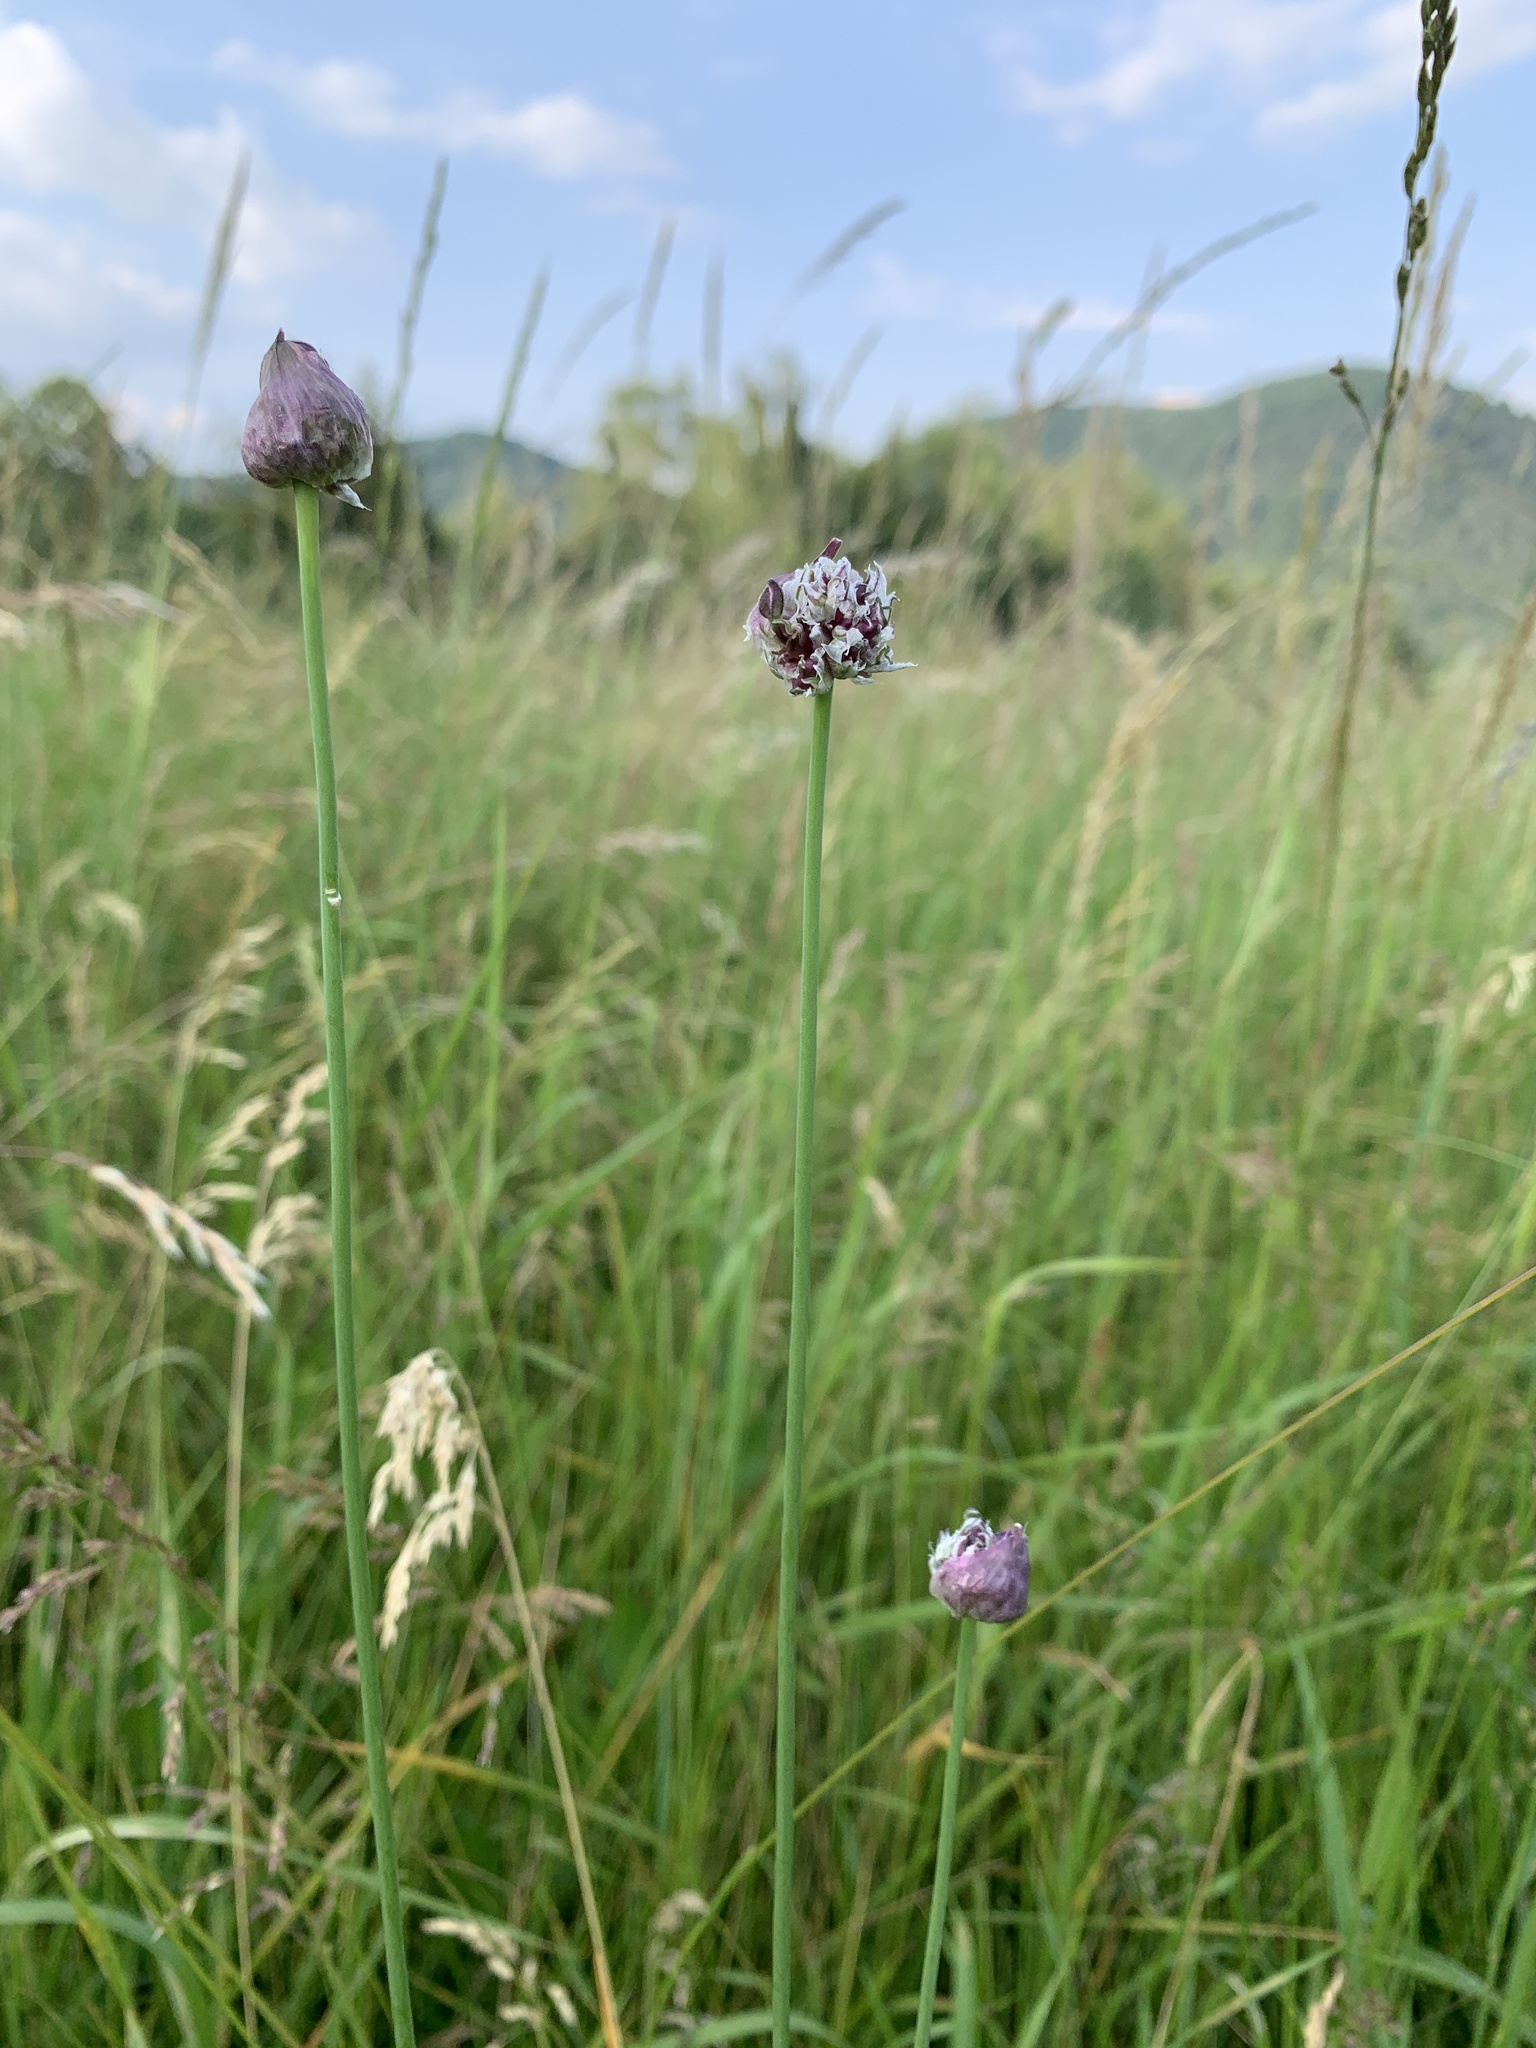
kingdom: Plantae
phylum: Tracheophyta
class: Liliopsida
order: Asparagales
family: Amaryllidaceae
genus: Allium
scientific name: Allium scorodoprasum
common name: Sand leek
